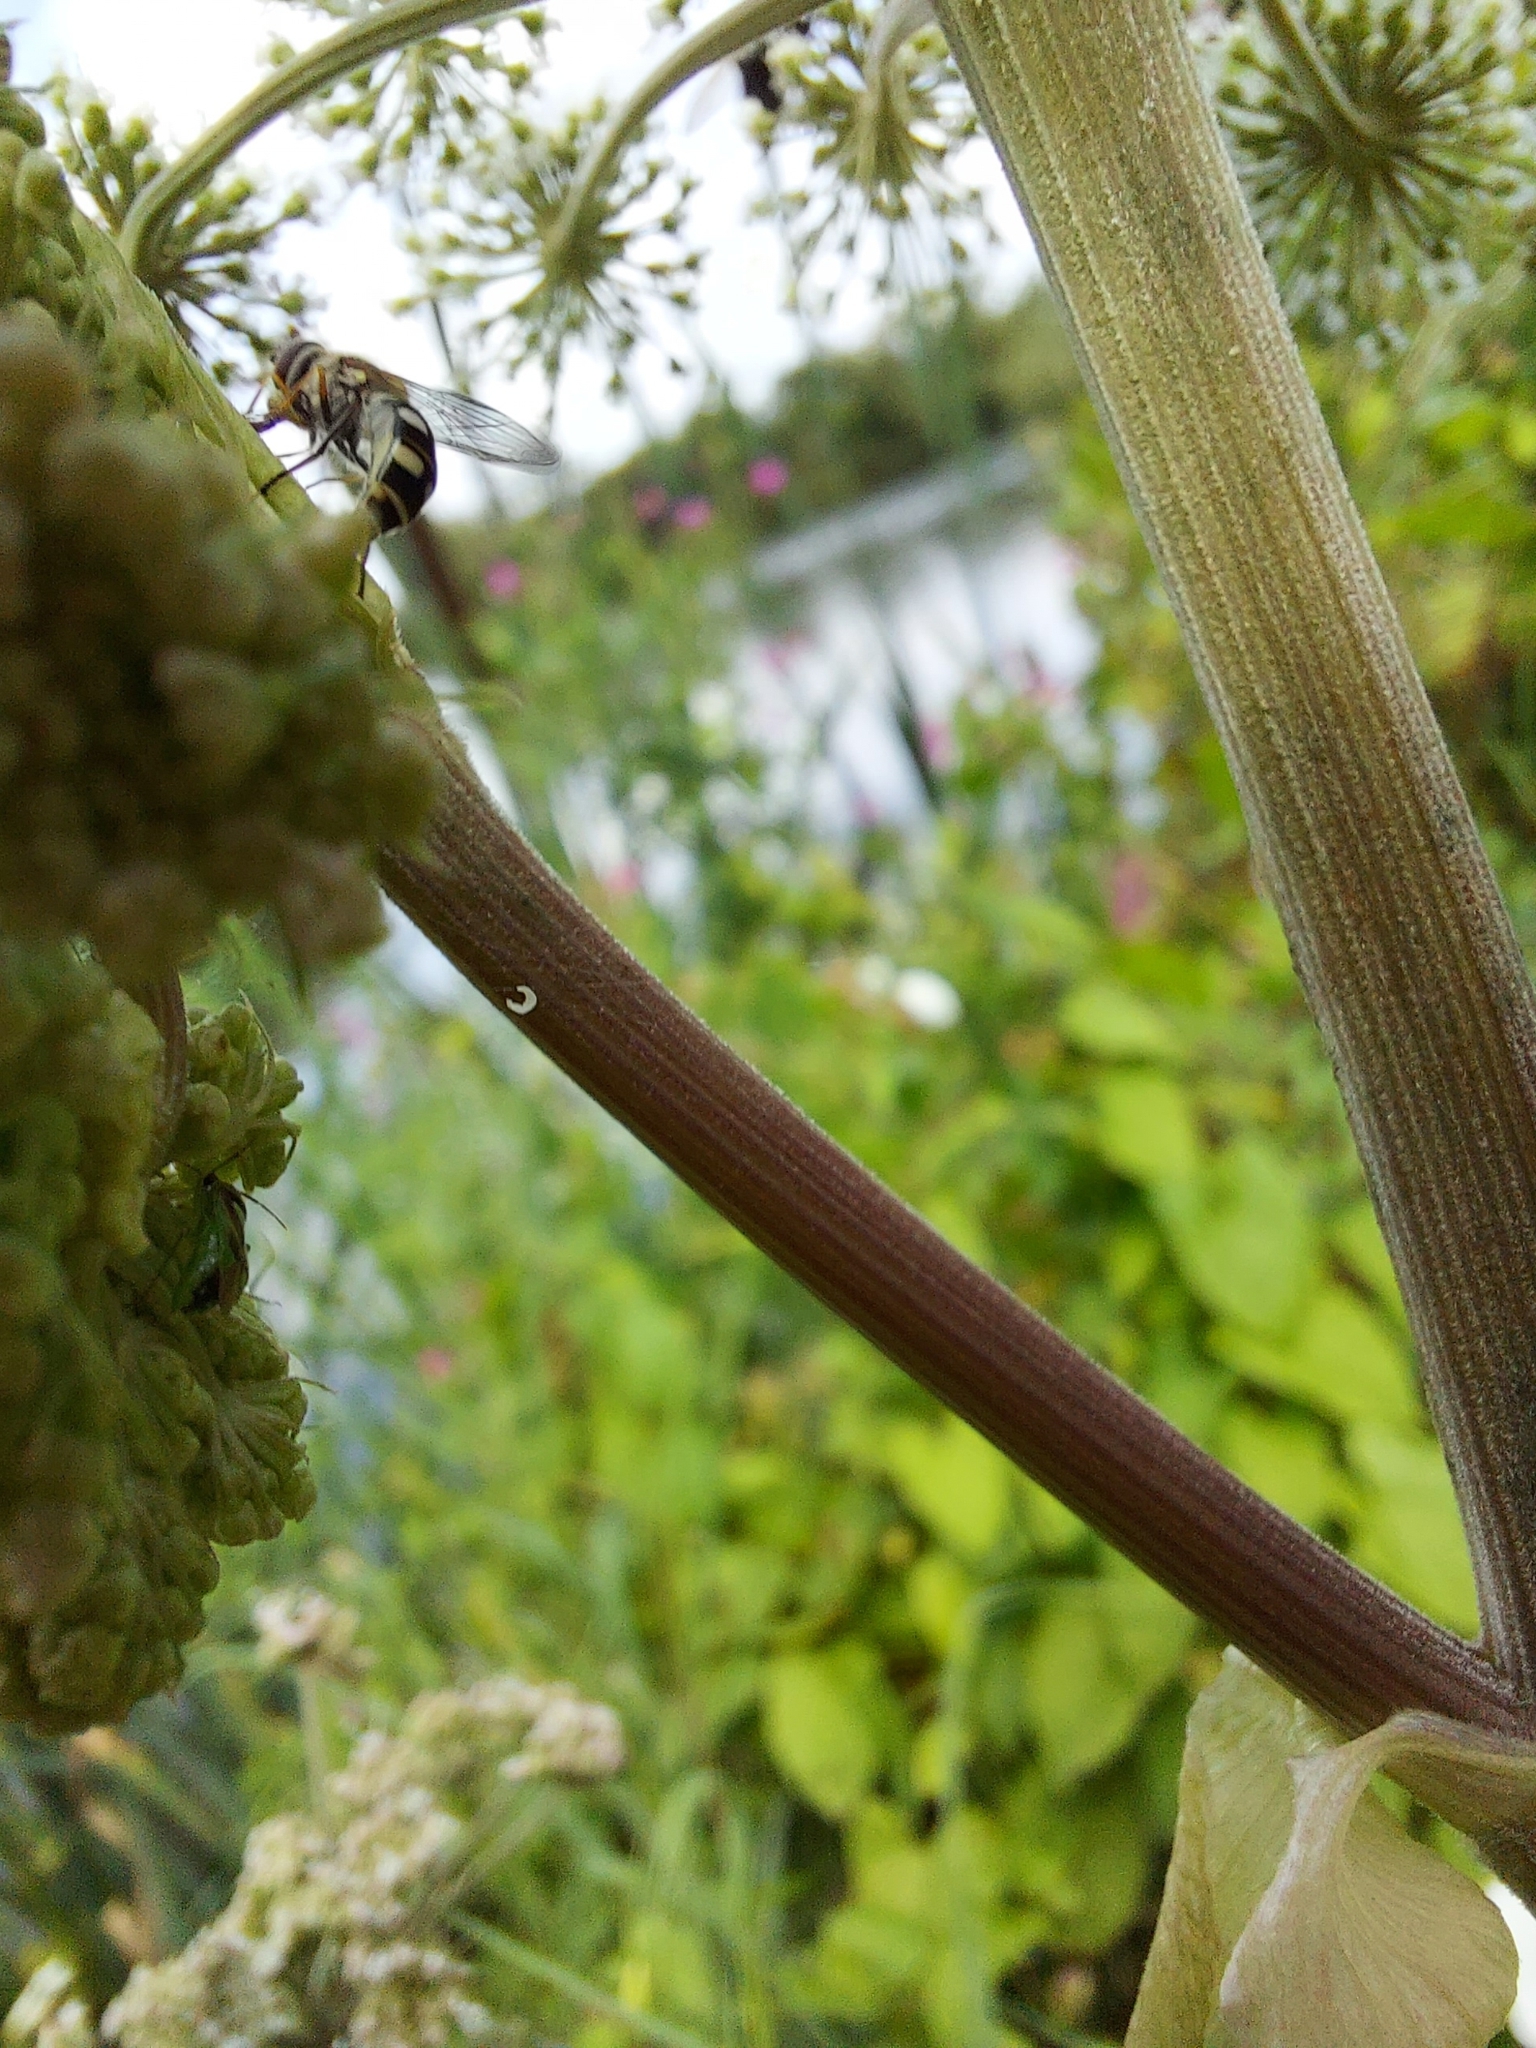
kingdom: Animalia
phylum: Arthropoda
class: Insecta
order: Diptera
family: Syrphidae
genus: Melangyna
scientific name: Melangyna umbellatarum
